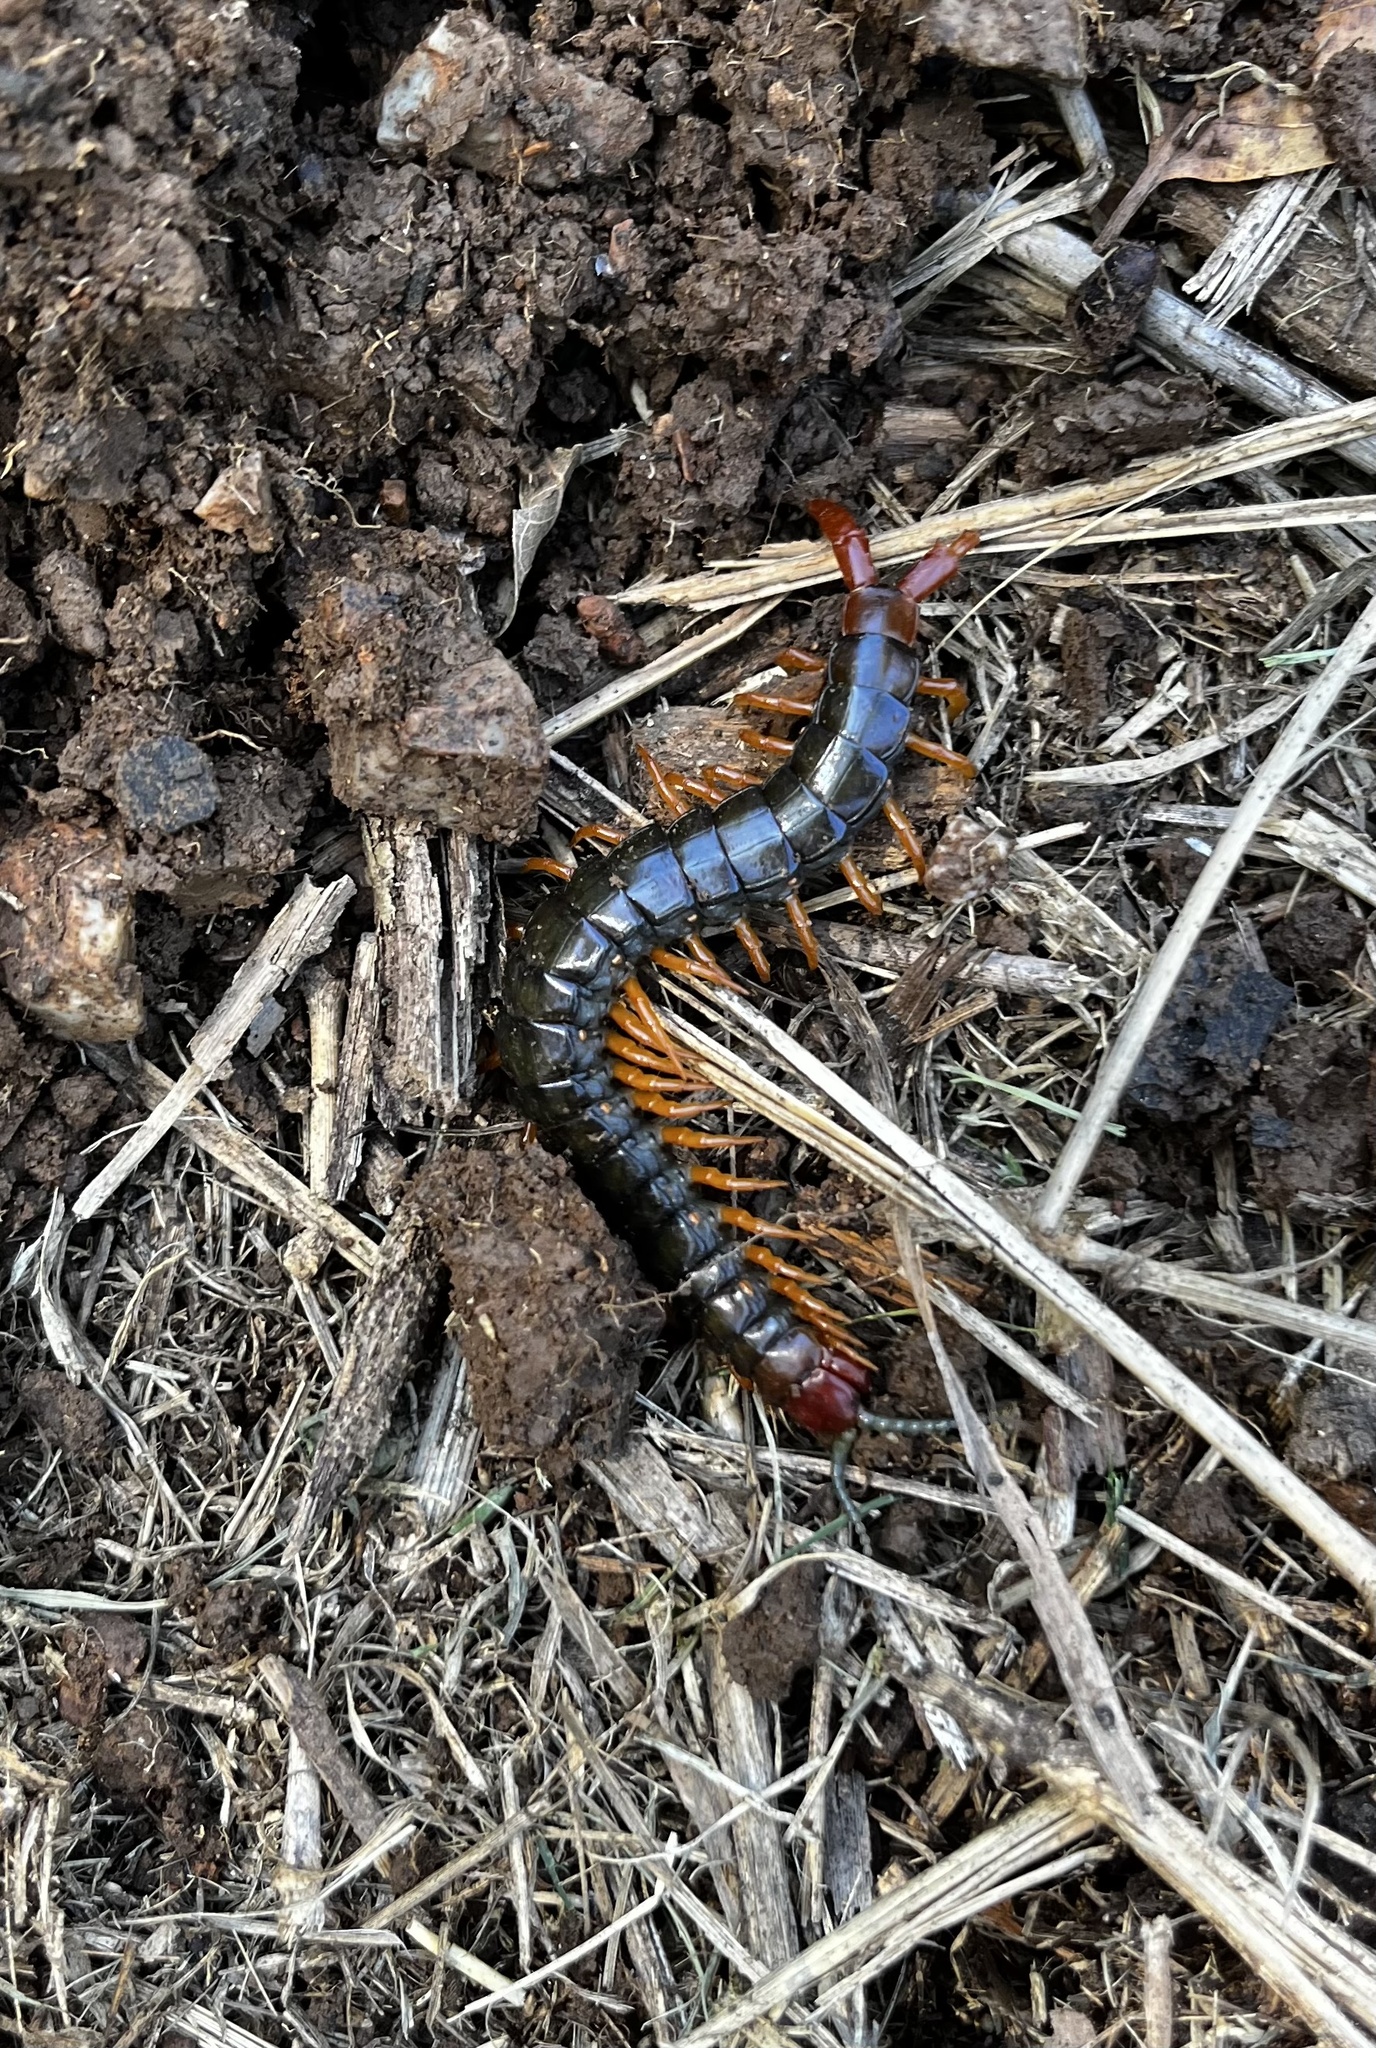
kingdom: Animalia
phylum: Arthropoda
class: Chilopoda
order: Scolopendromorpha
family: Scolopendridae
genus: Cormocephalus
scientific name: Cormocephalus westwoodi
